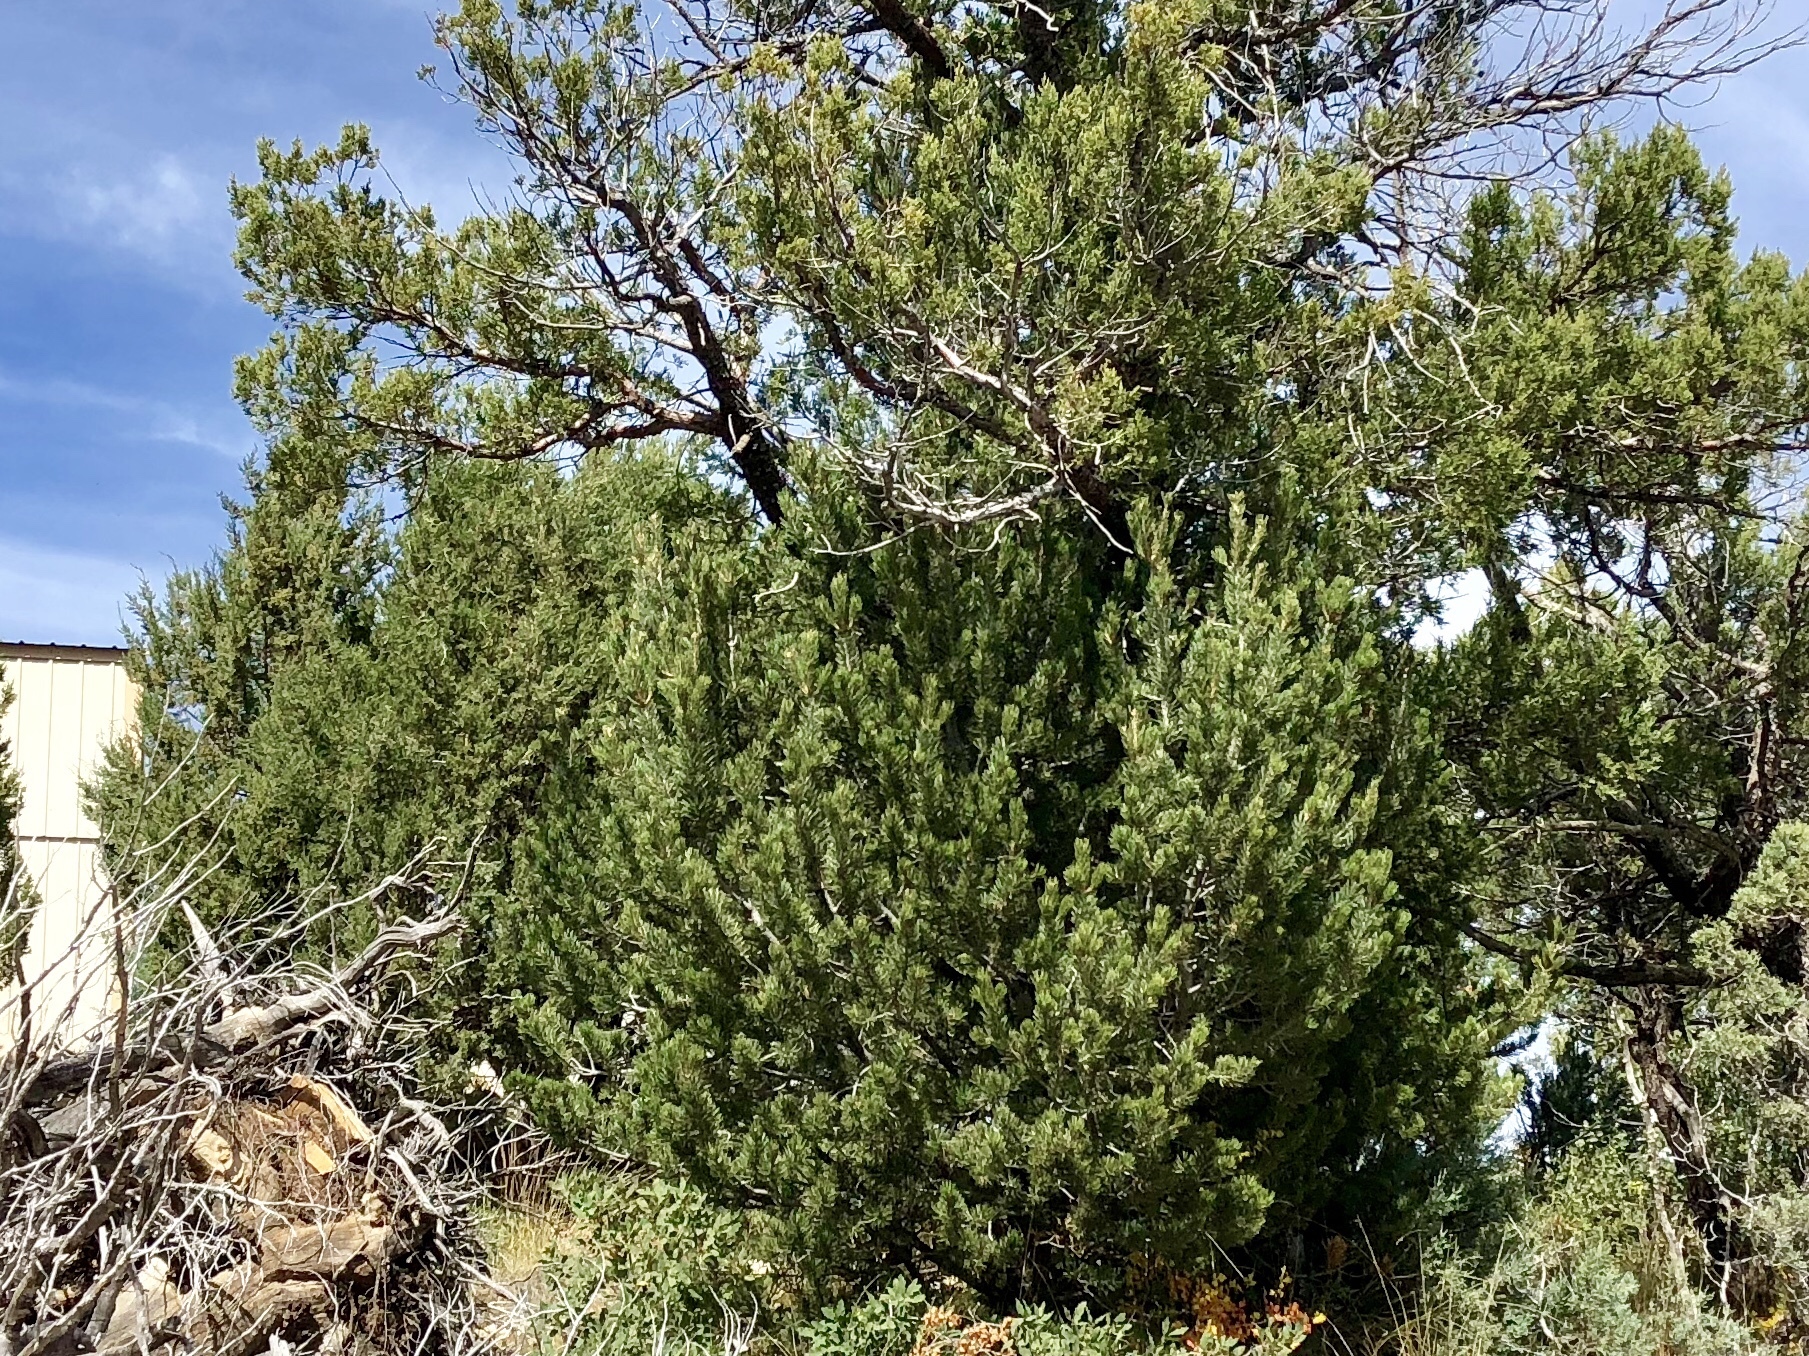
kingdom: Plantae
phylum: Tracheophyta
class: Pinopsida
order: Pinales
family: Pinaceae
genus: Pinus
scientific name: Pinus edulis
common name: Colorado pinyon
